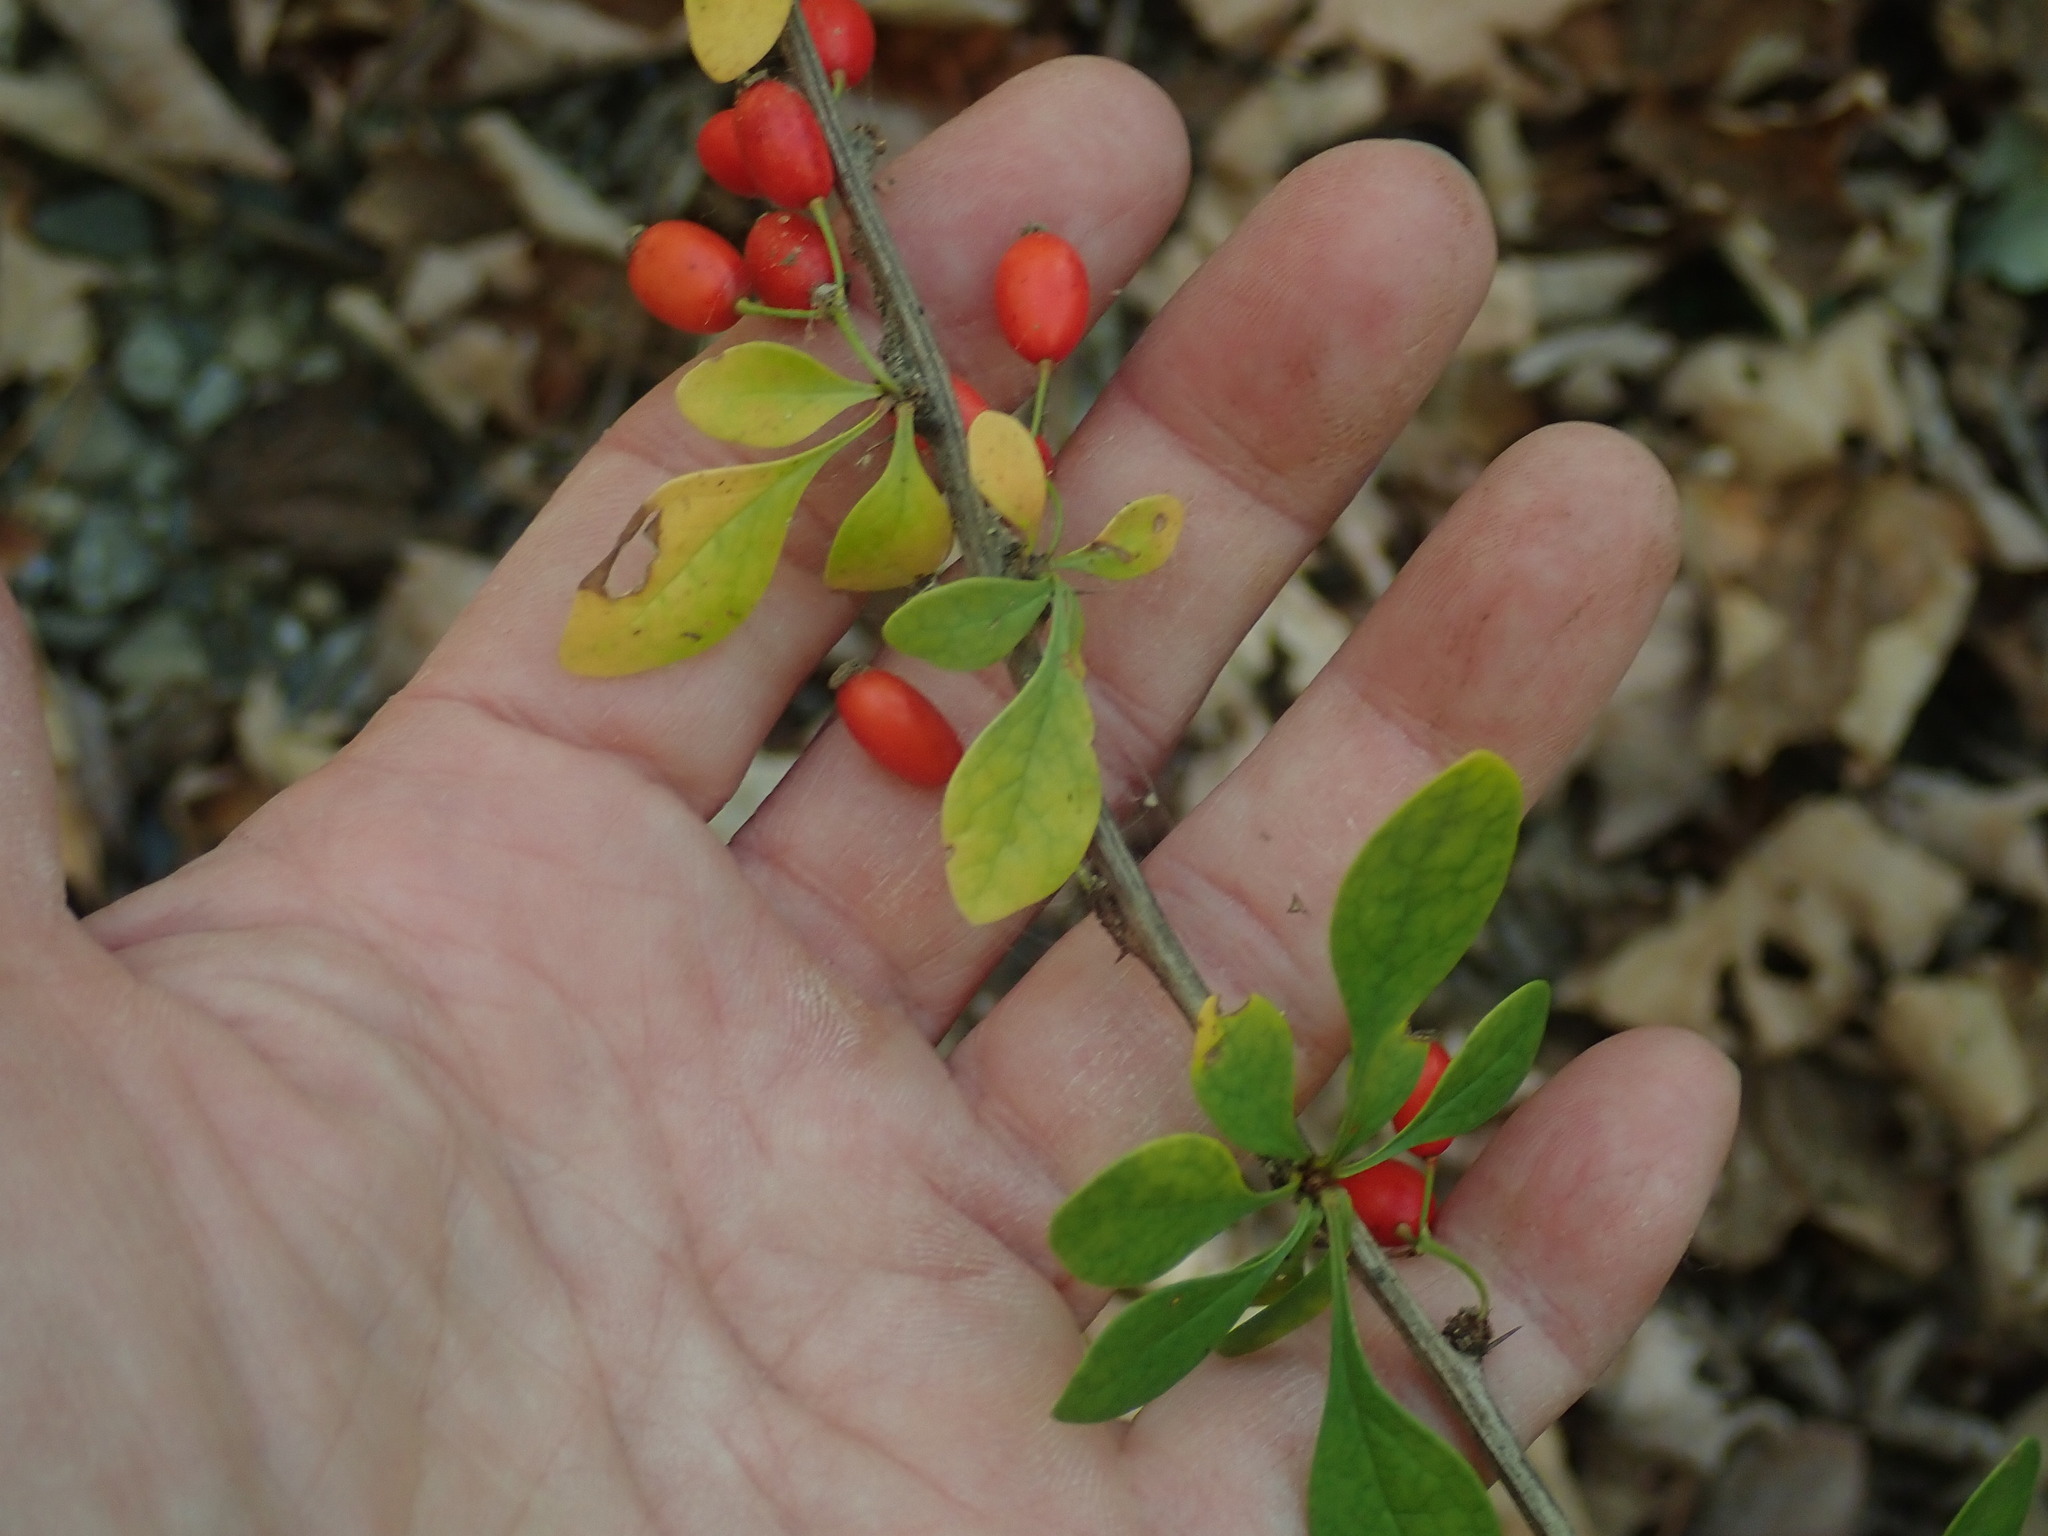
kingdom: Plantae
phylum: Tracheophyta
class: Magnoliopsida
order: Ranunculales
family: Berberidaceae
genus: Berberis
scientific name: Berberis thunbergii
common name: Japanese barberry
